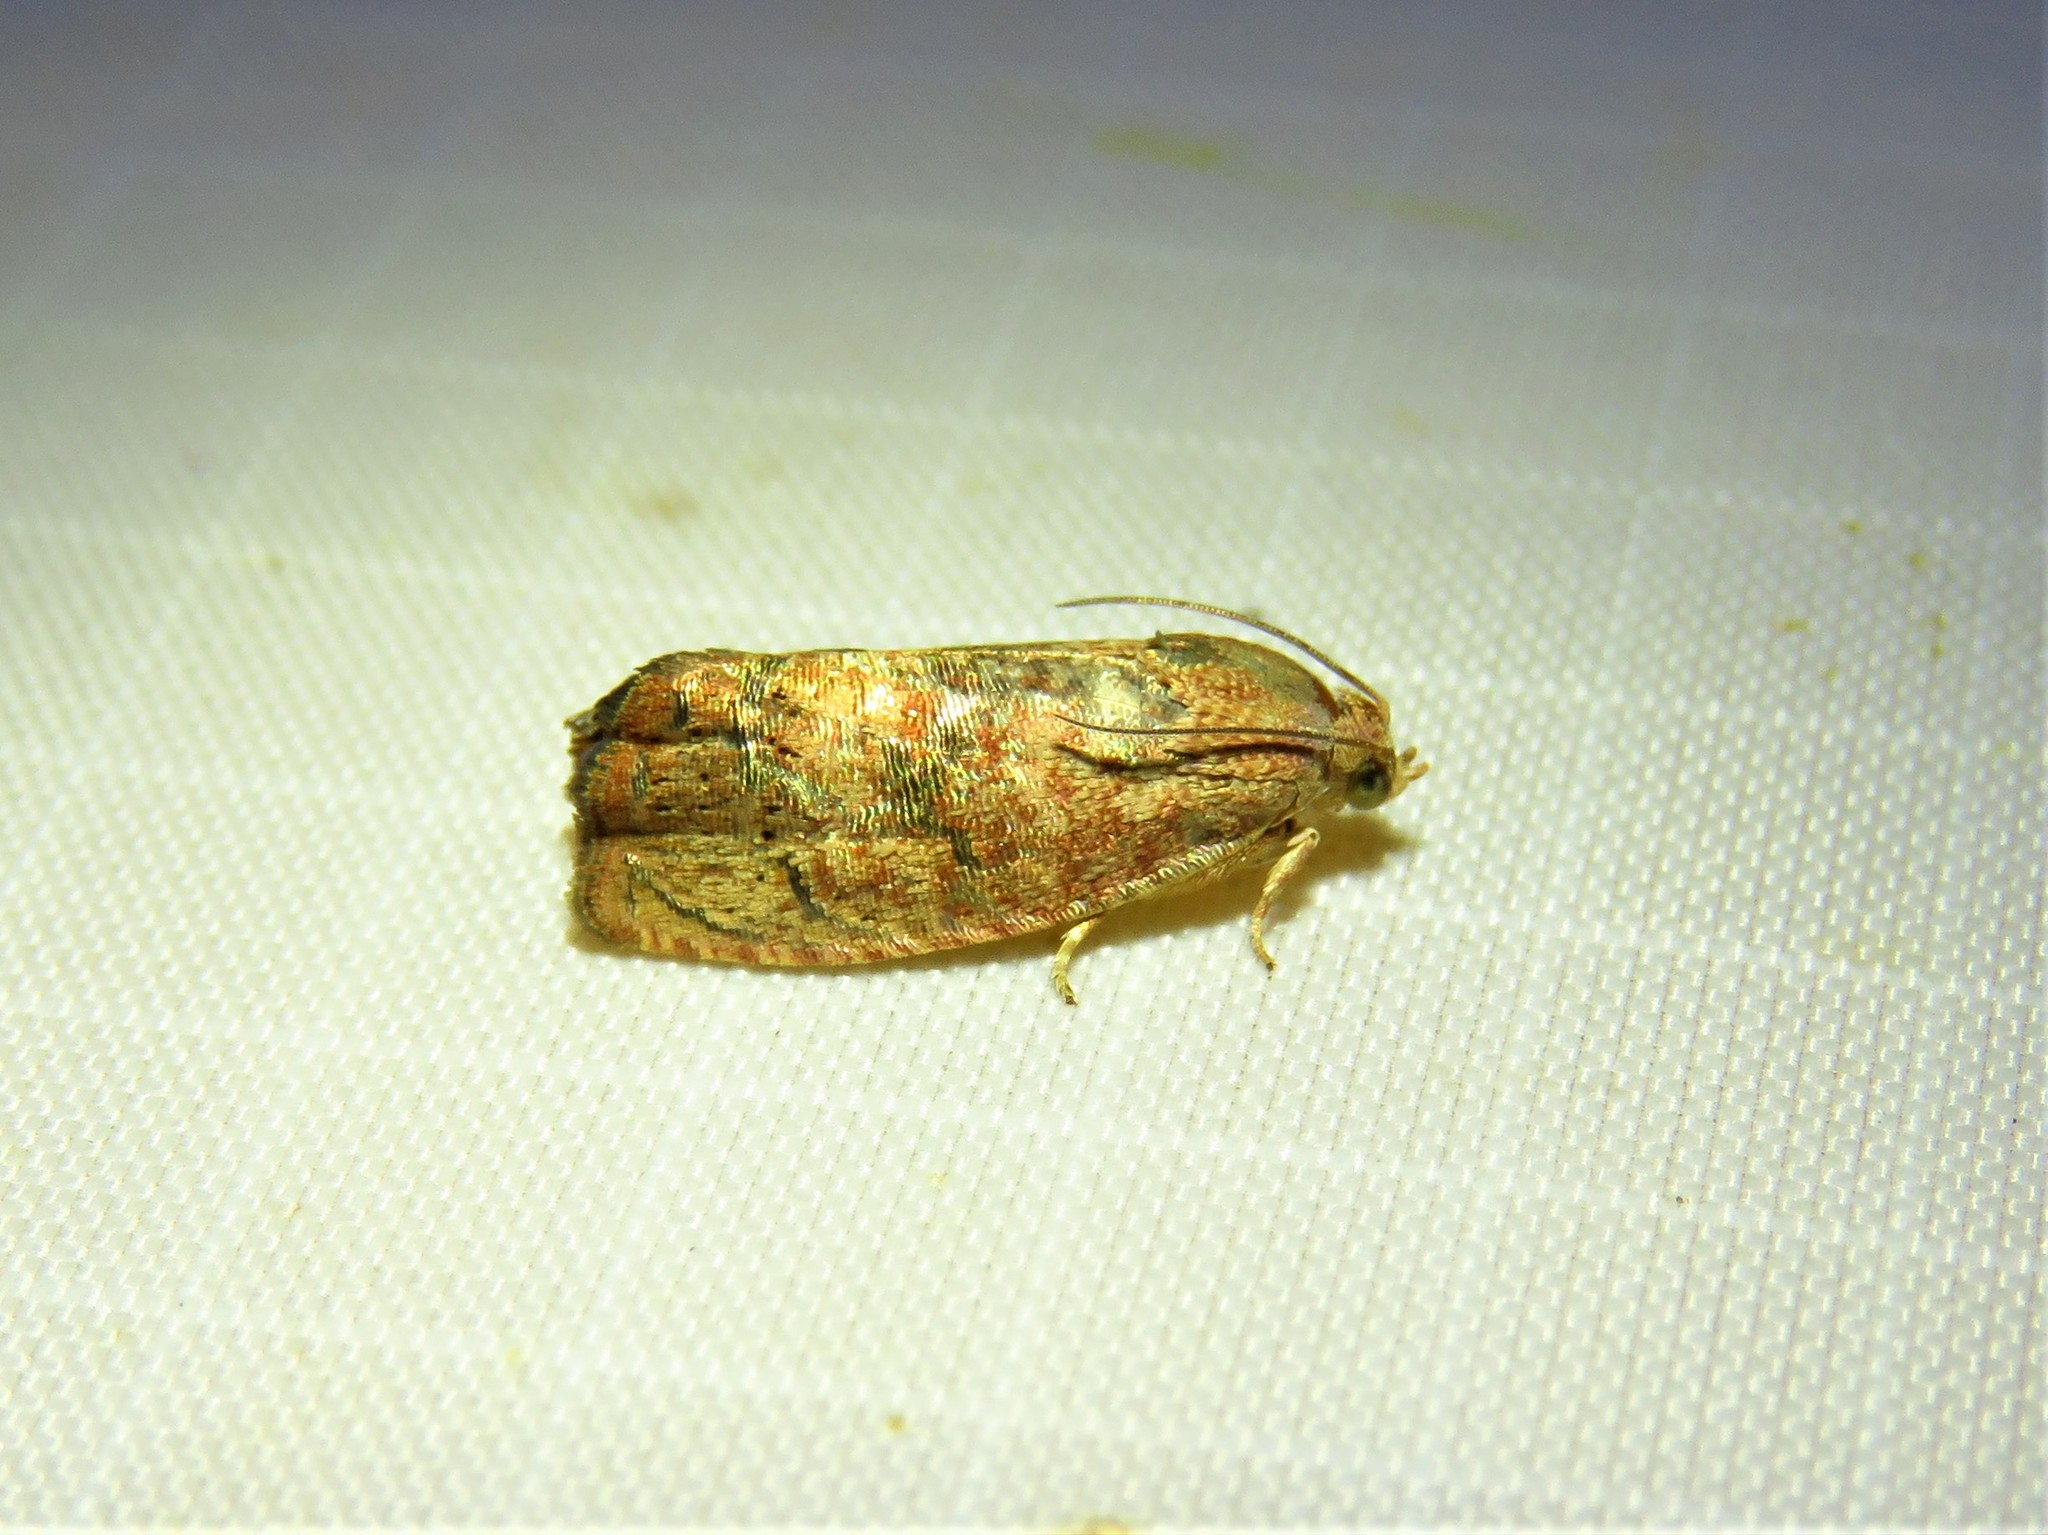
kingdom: Animalia
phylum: Arthropoda
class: Insecta
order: Lepidoptera
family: Tortricidae
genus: Cydia
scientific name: Cydia latiferreana
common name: Filbertworm moth
